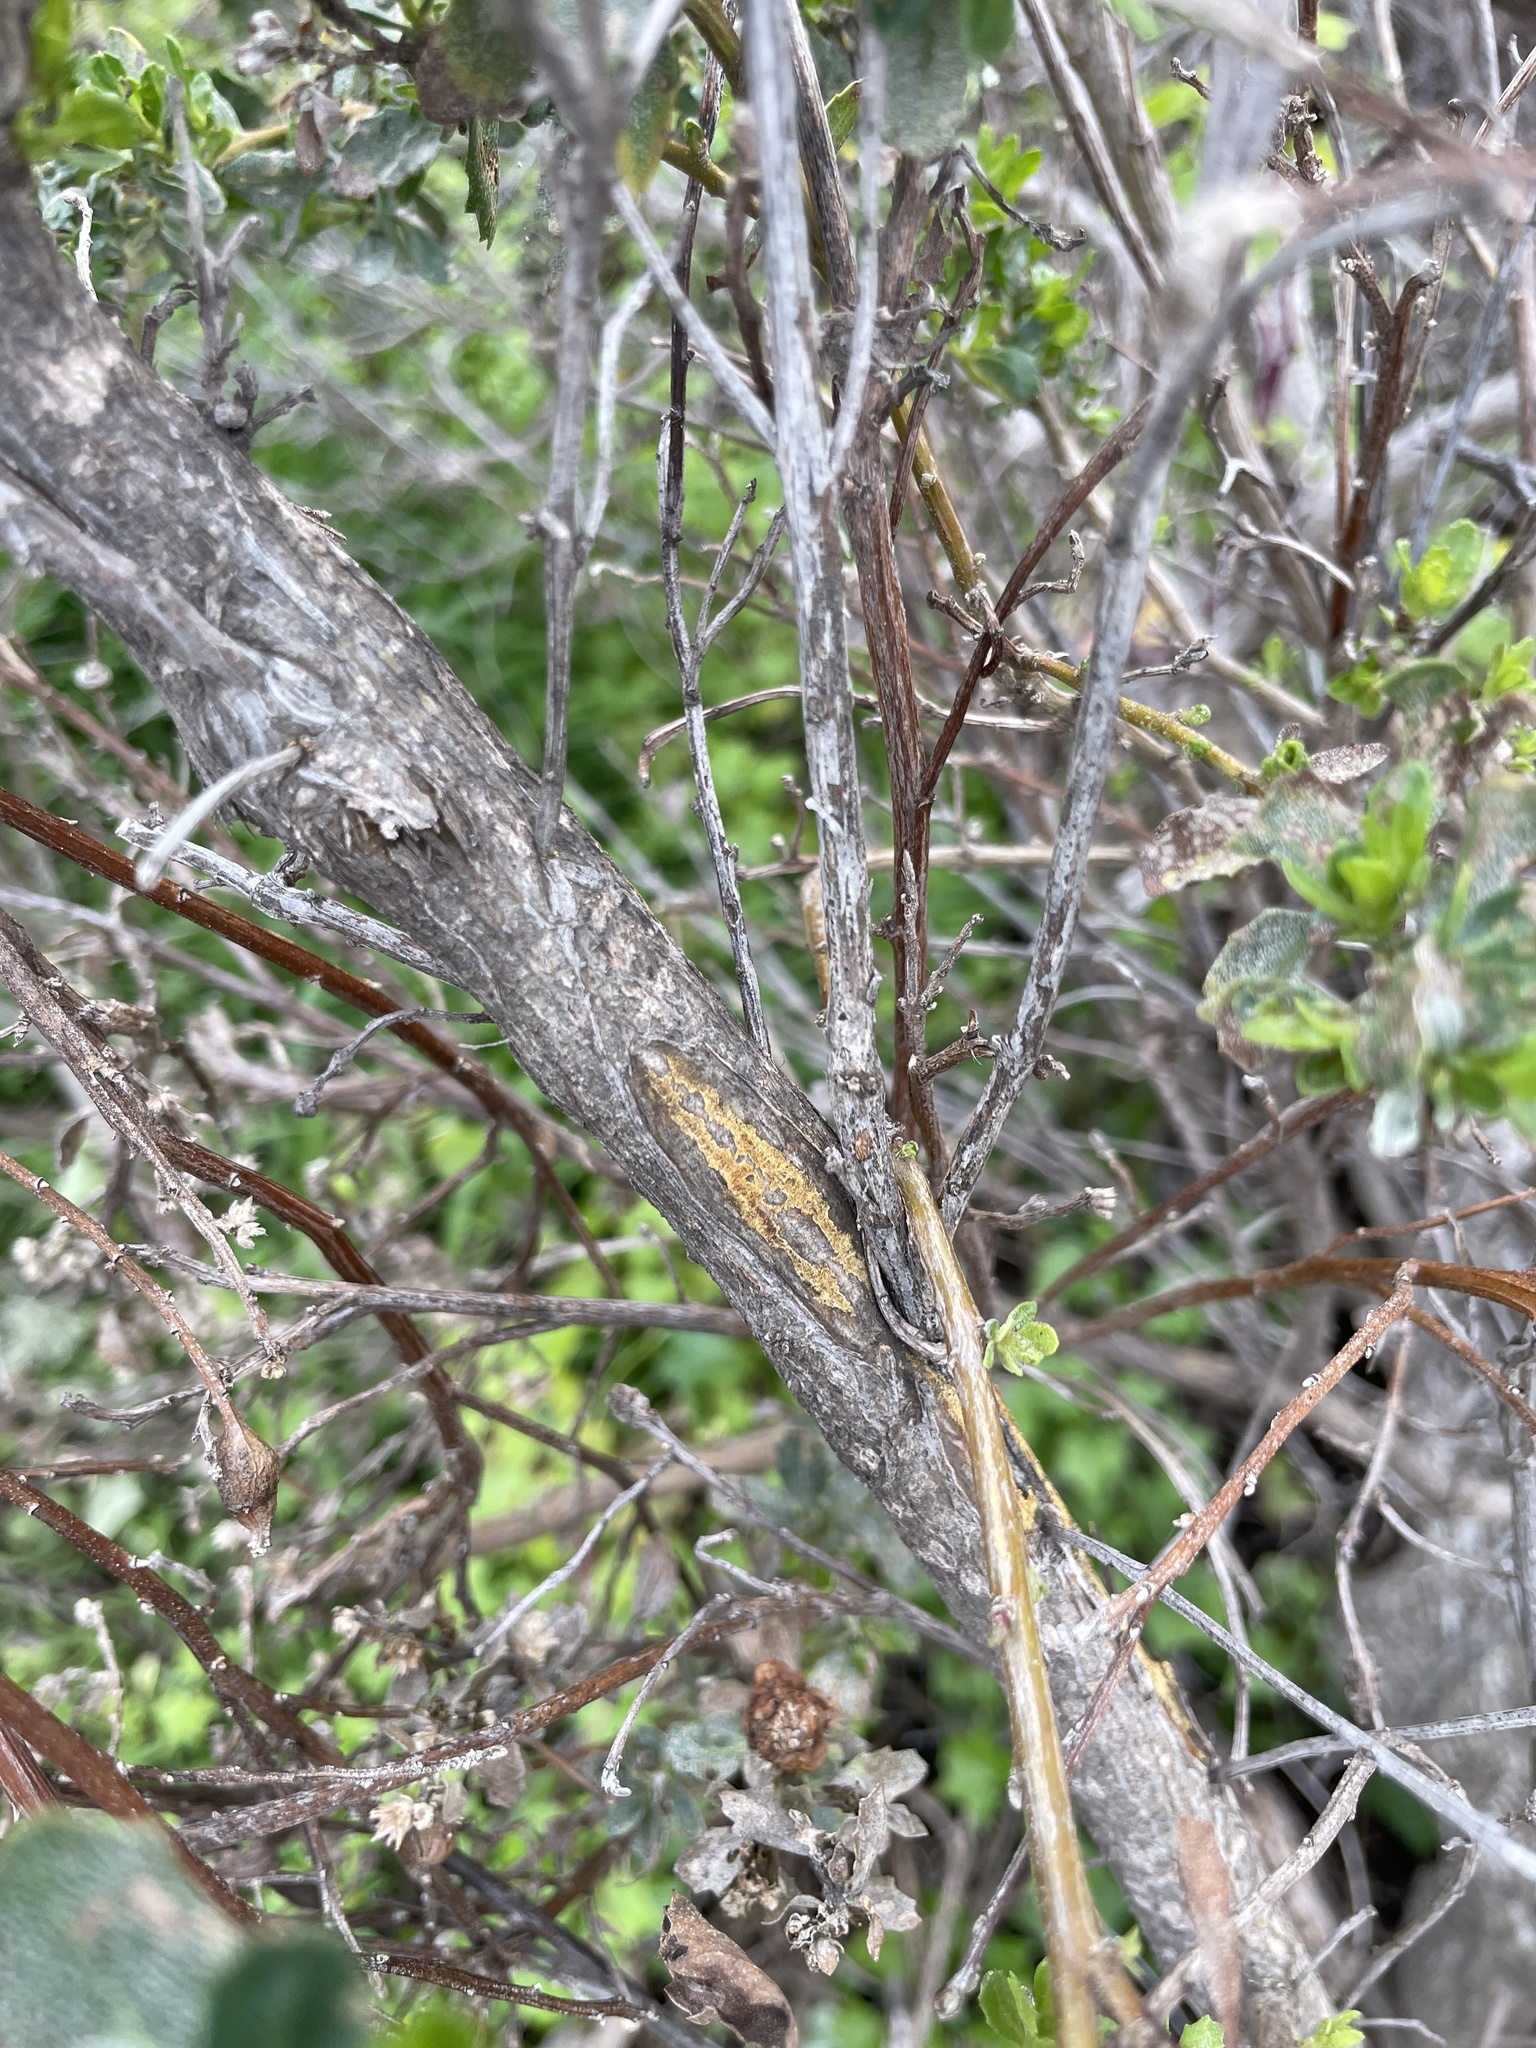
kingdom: Fungi
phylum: Basidiomycota
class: Pucciniomycetes
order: Pucciniales
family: Pucciniaceae
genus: Eriosporangium
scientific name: Eriosporangium evadens
